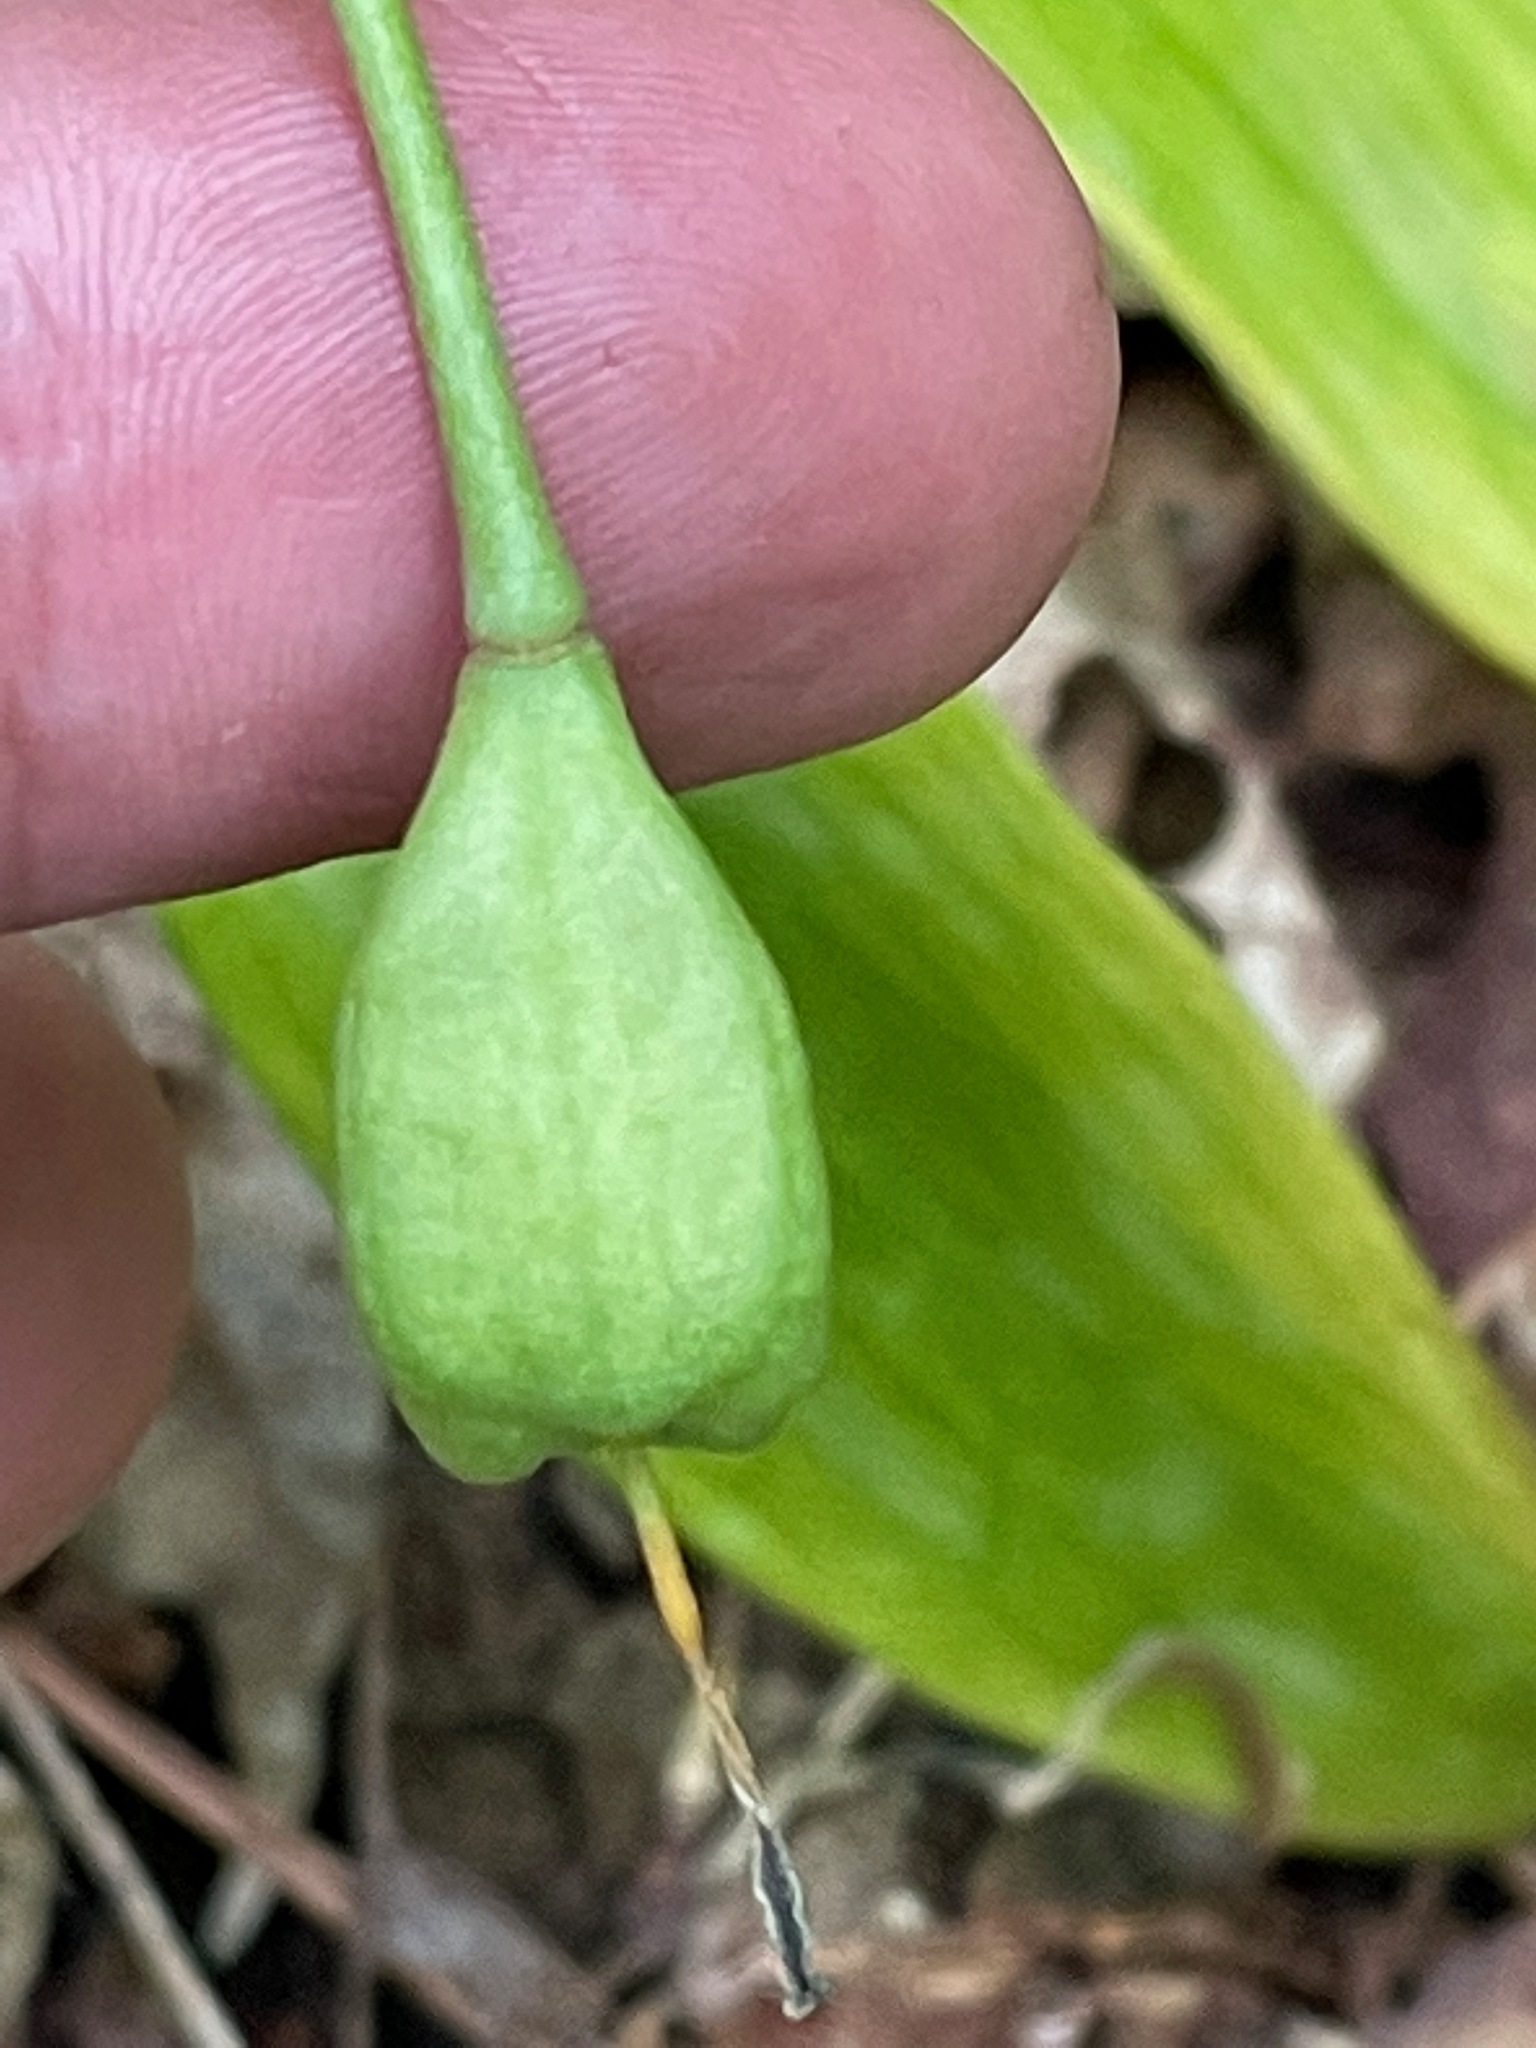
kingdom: Plantae
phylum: Tracheophyta
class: Liliopsida
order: Liliales
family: Liliaceae
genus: Erythronium
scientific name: Erythronium americanum
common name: Yellow adder's-tongue
